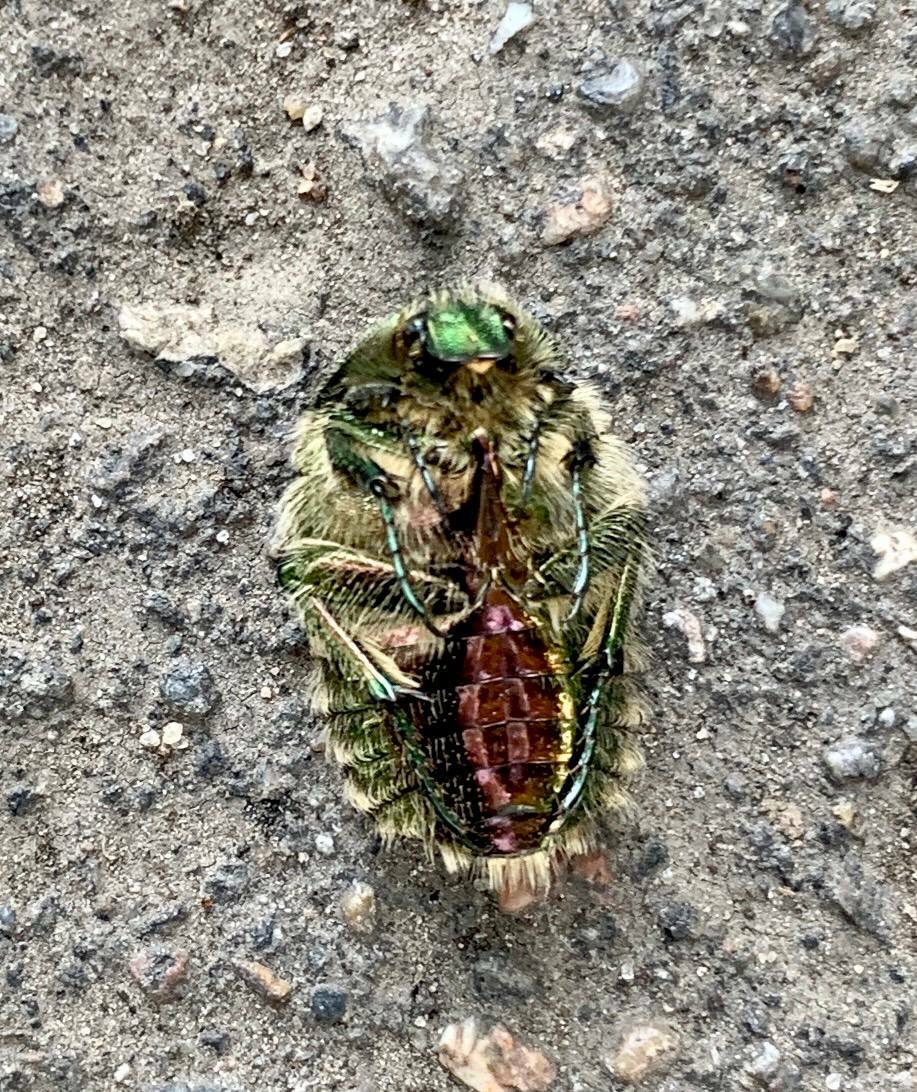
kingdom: Animalia
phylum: Arthropoda
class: Insecta
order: Coleoptera
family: Scarabaeidae
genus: Cetonia
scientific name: Cetonia aurata
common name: Rose chafer
